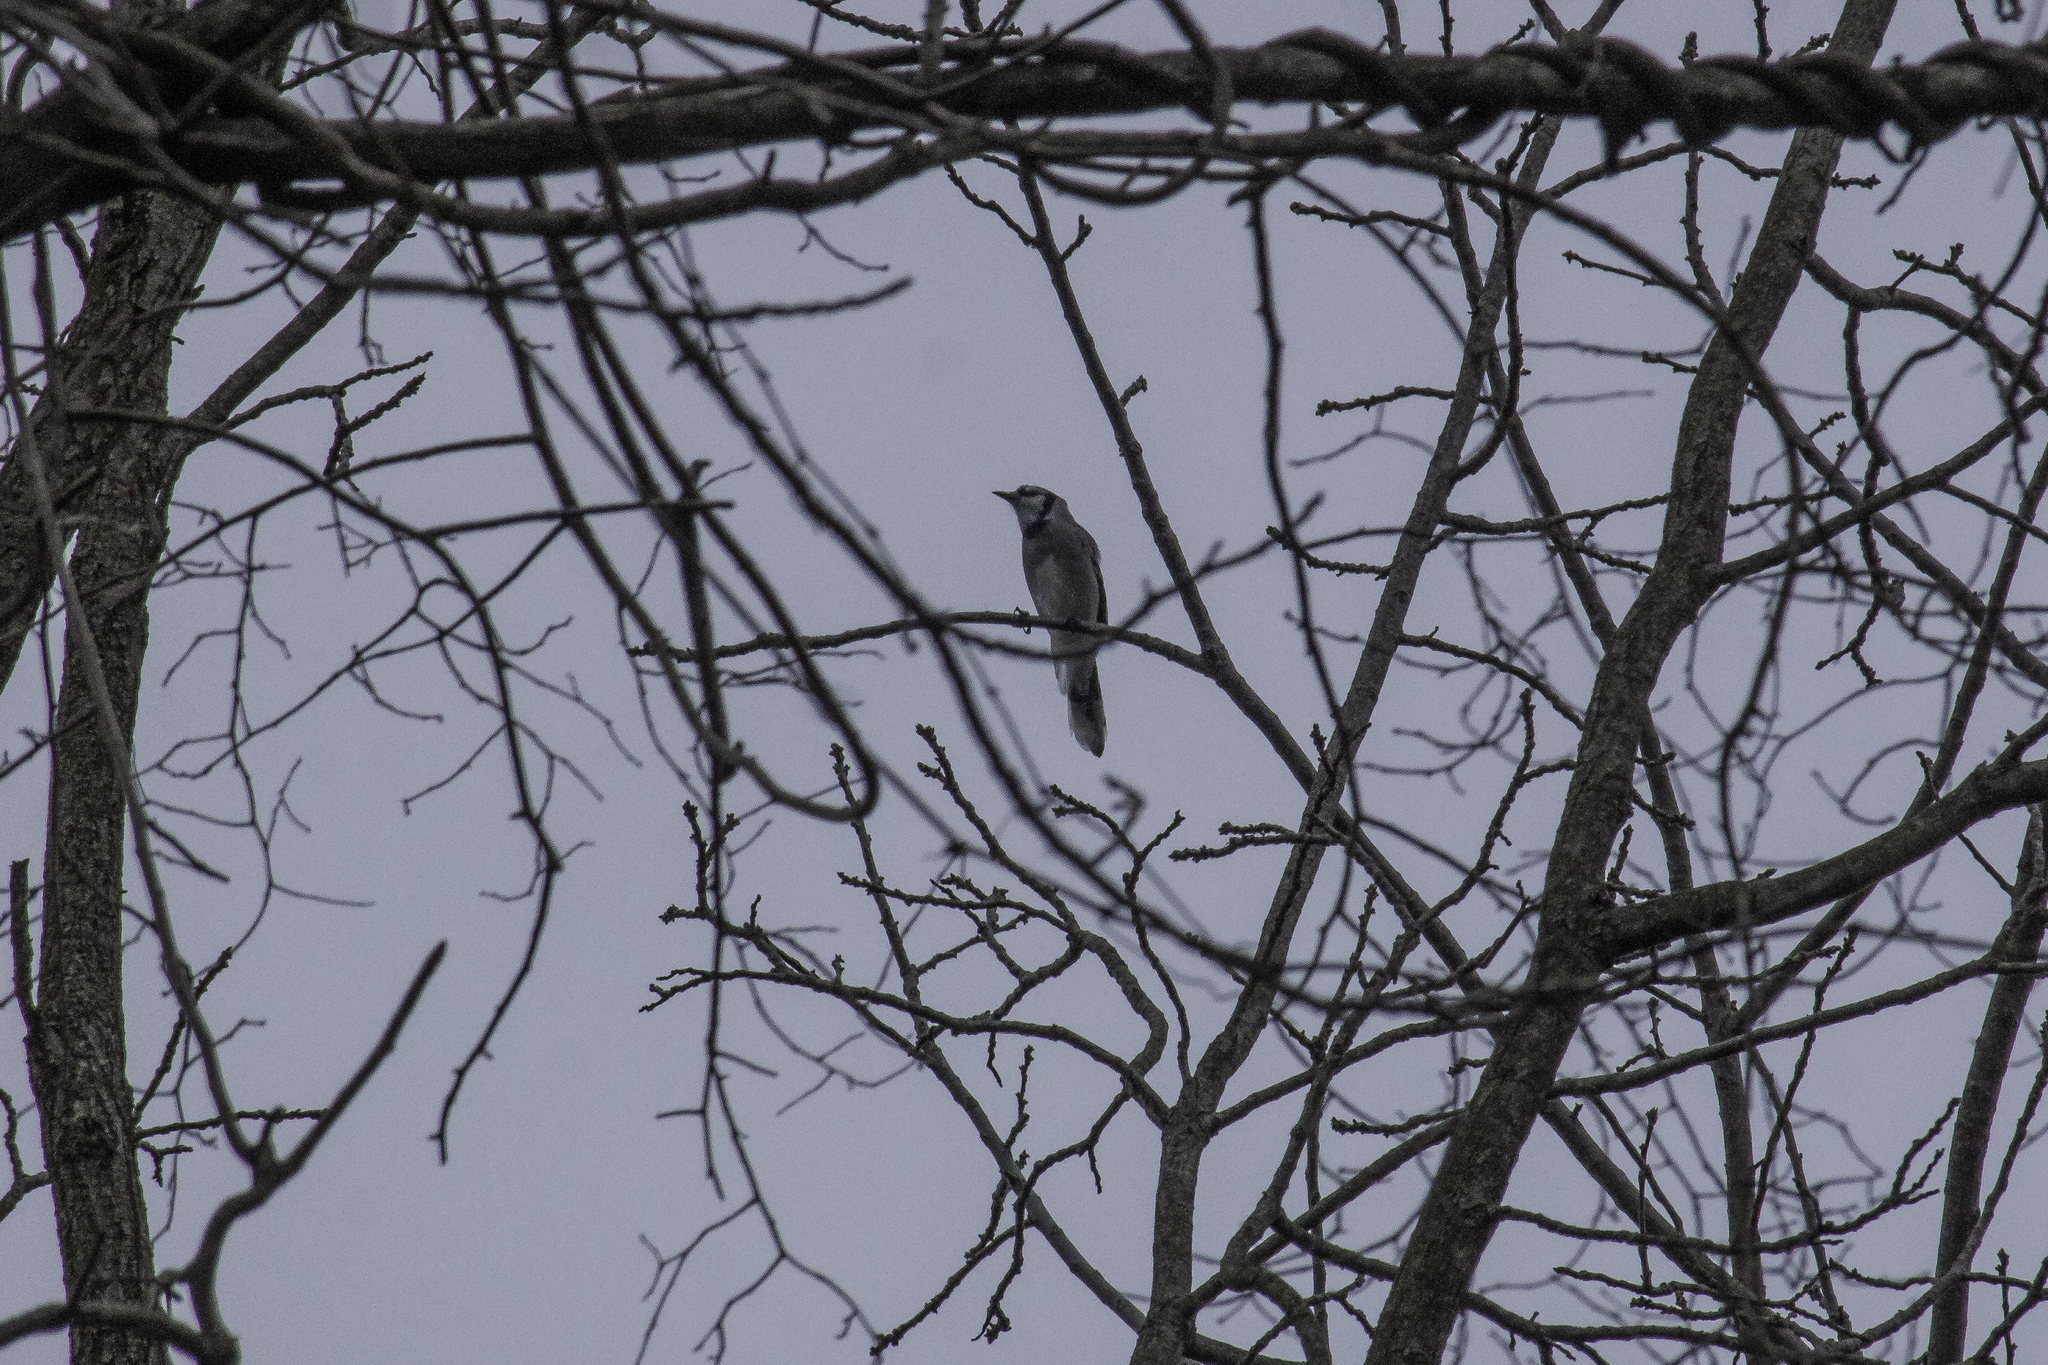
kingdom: Animalia
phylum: Chordata
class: Aves
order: Passeriformes
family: Corvidae
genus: Cyanocitta
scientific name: Cyanocitta cristata
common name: Blue jay
